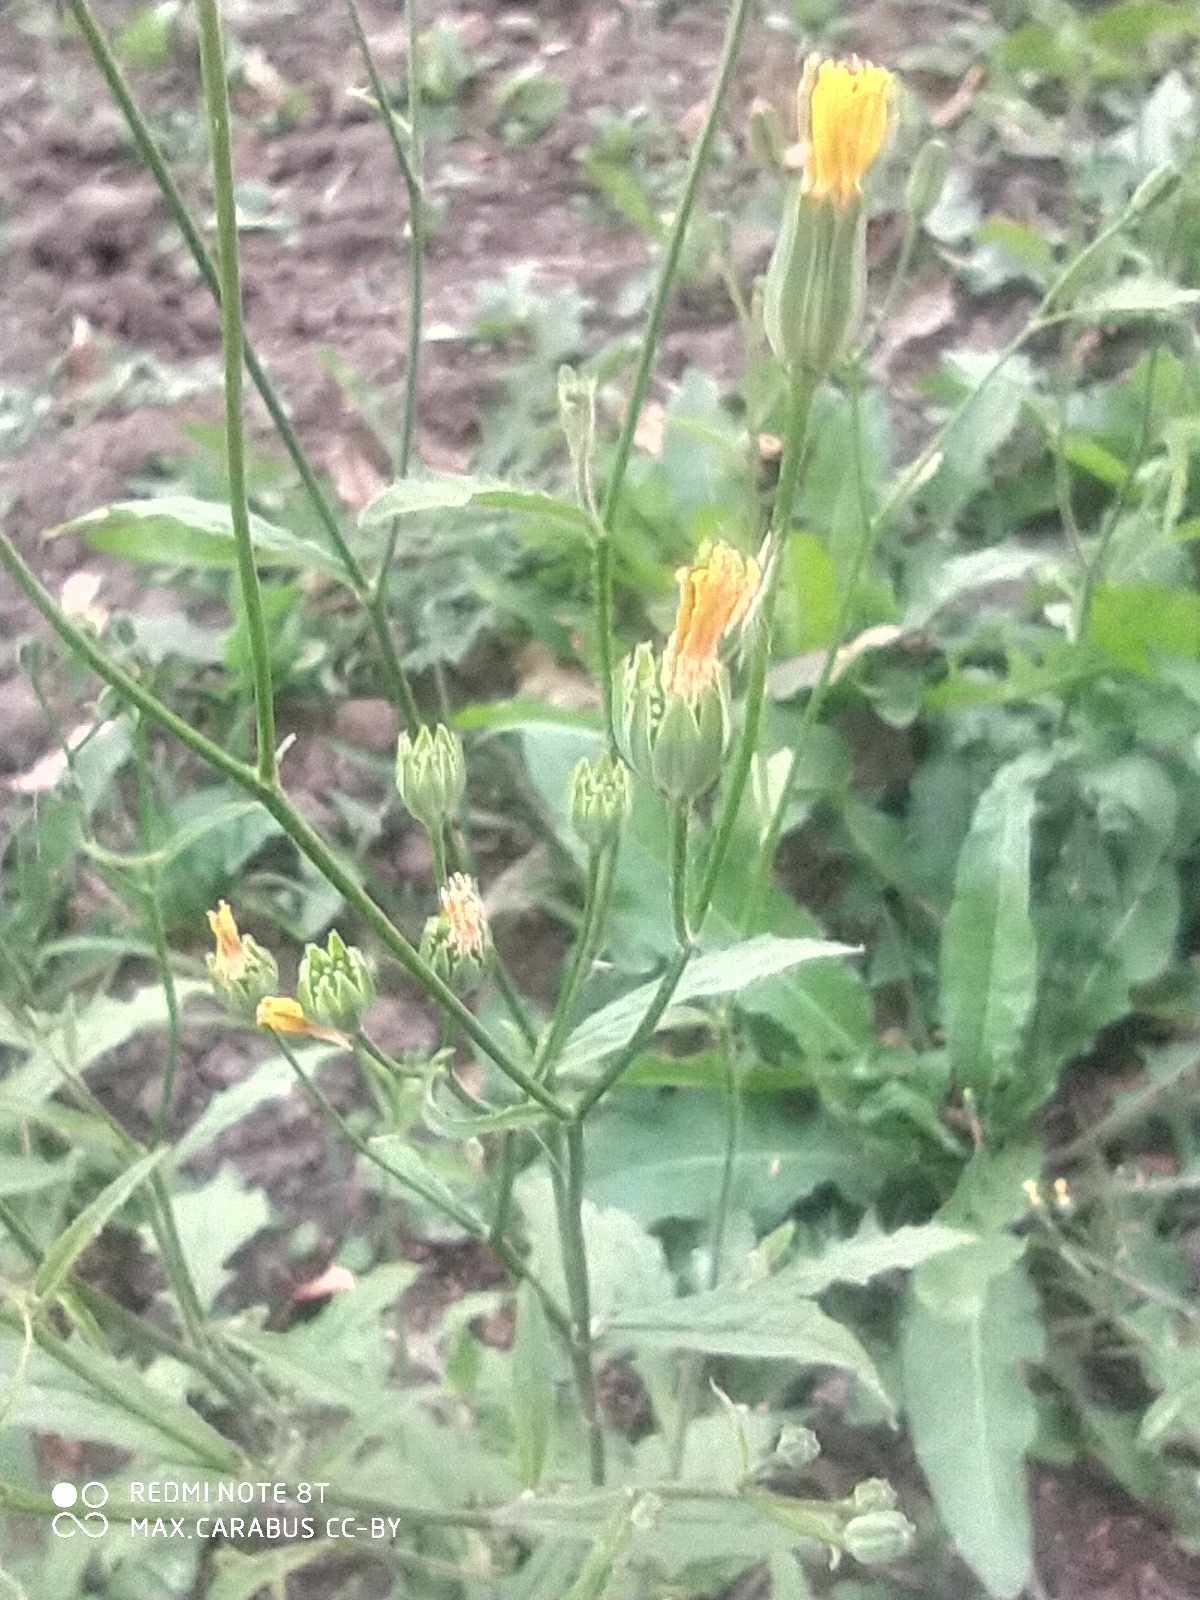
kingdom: Plantae
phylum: Tracheophyta
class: Magnoliopsida
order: Asterales
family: Asteraceae
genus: Lapsana
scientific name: Lapsana communis
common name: Nipplewort
